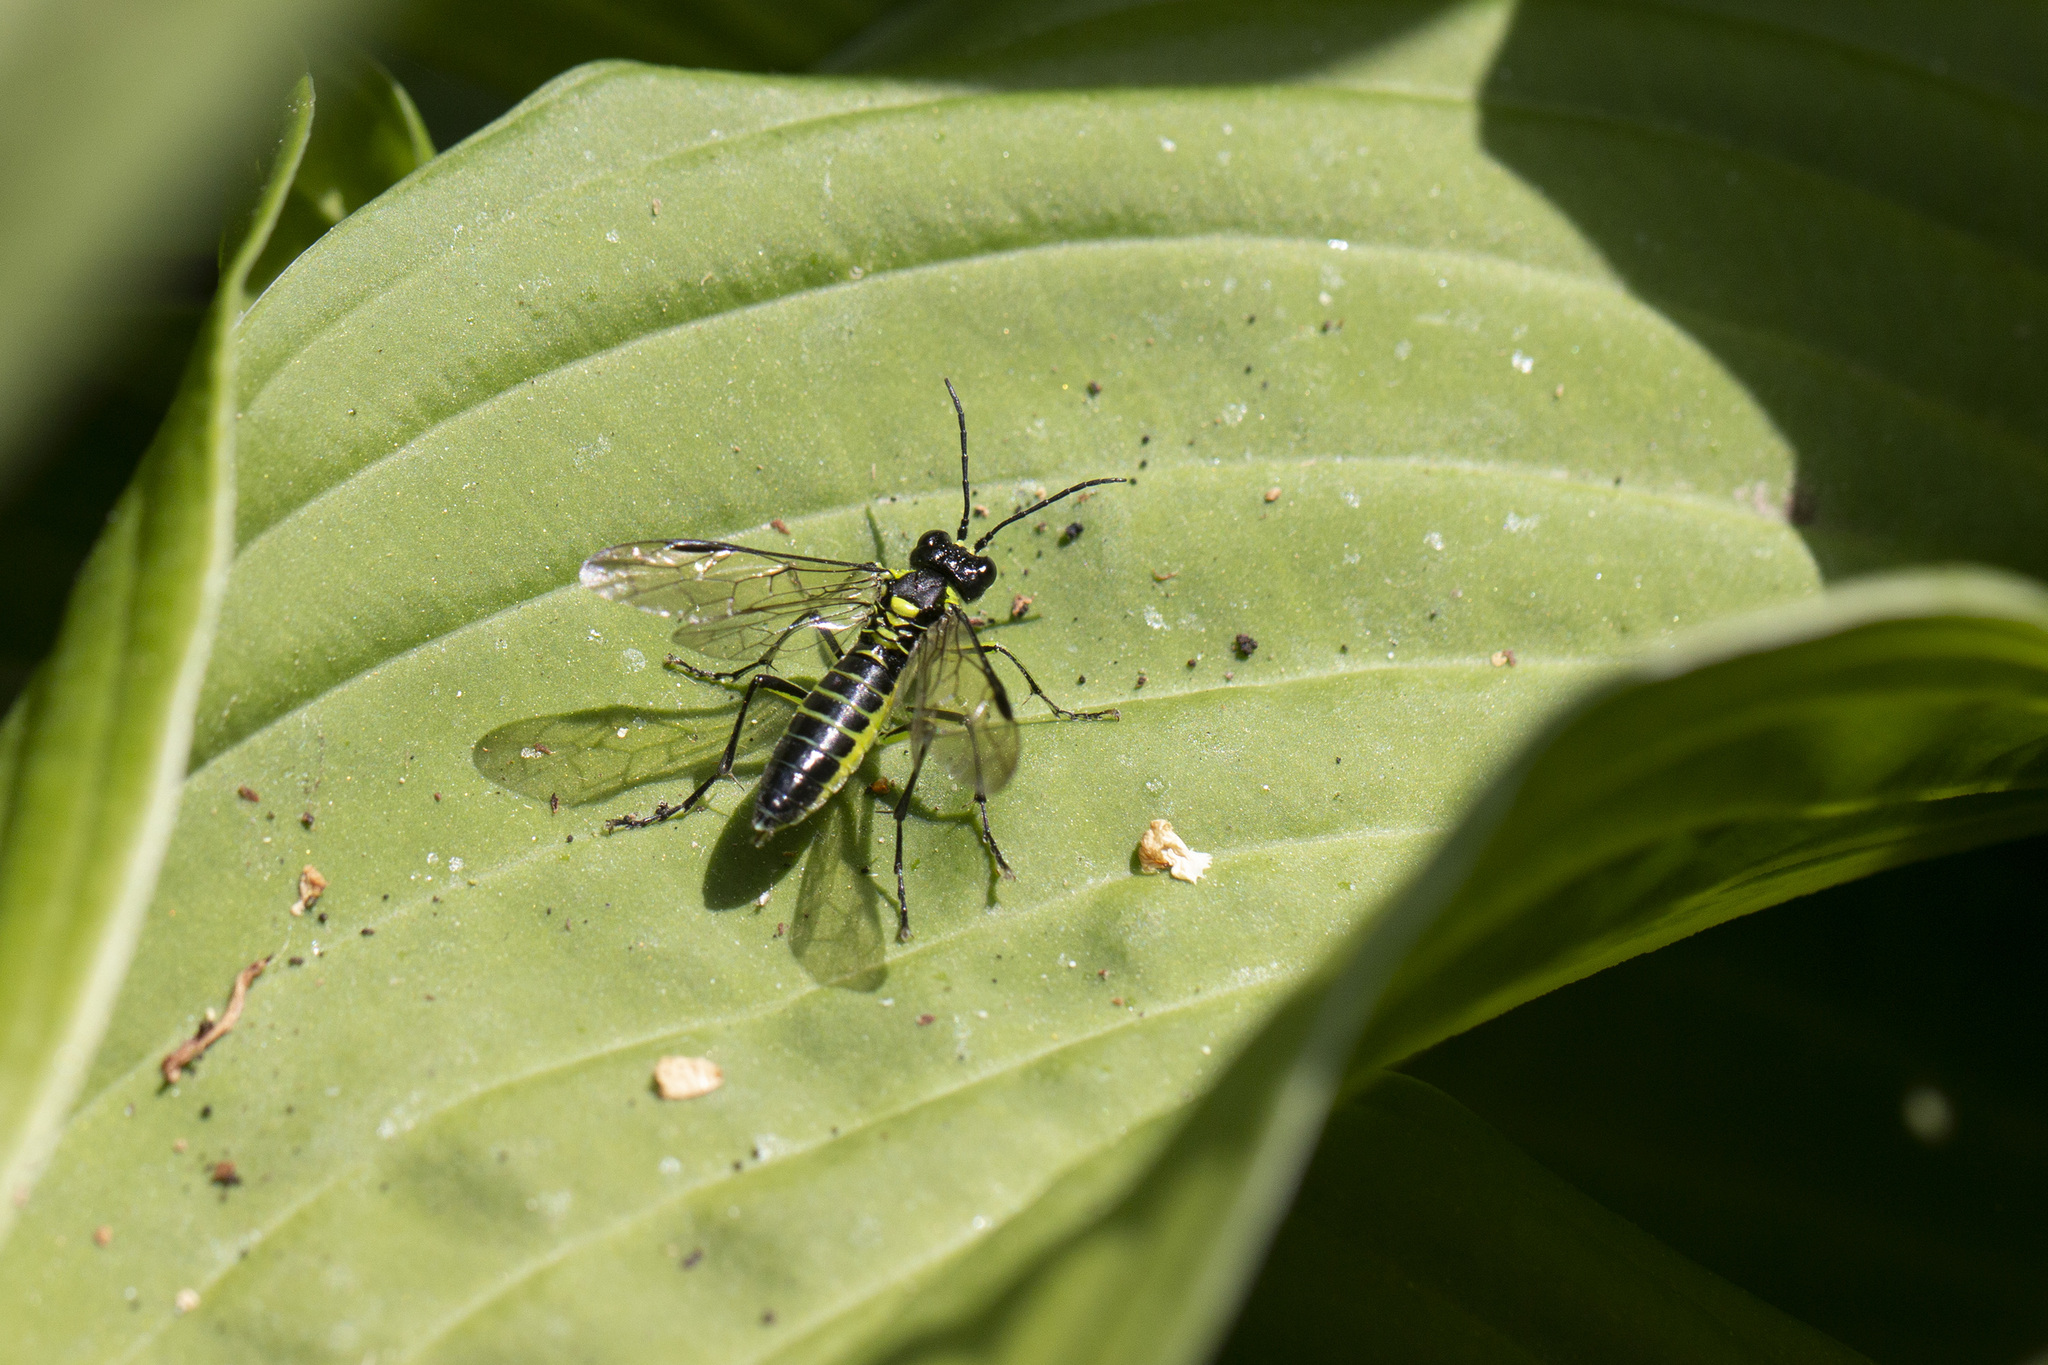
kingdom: Animalia
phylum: Arthropoda
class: Insecta
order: Hymenoptera
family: Tenthredinidae
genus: Tenthredo
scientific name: Tenthredo mesomela
